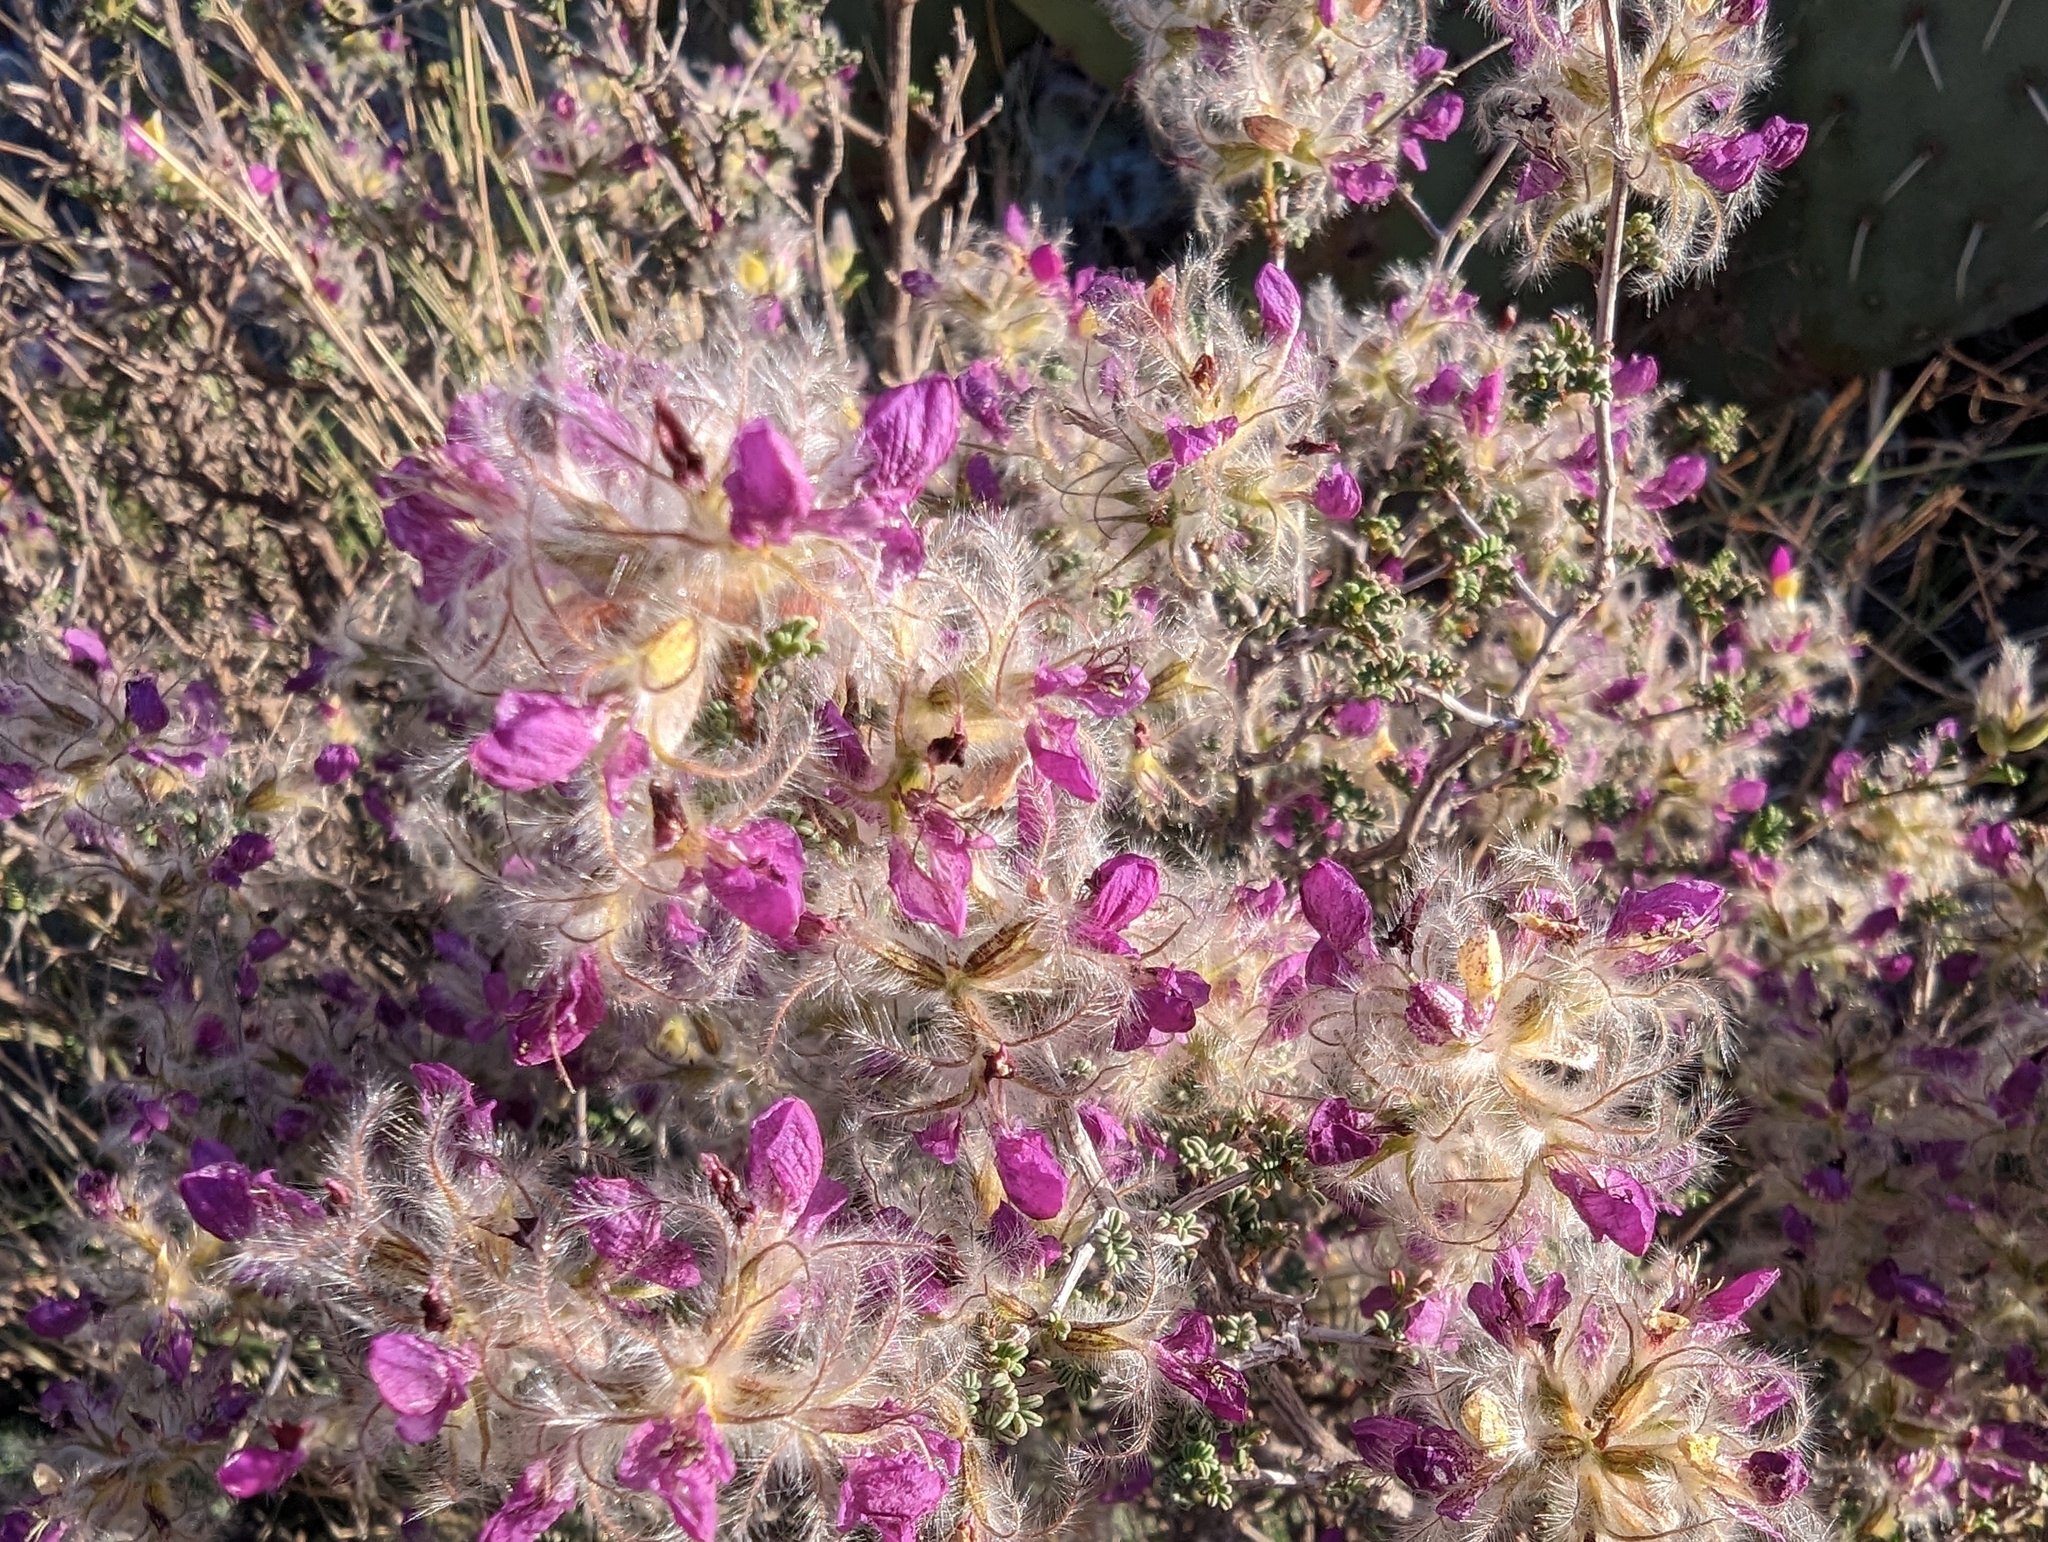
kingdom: Plantae
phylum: Tracheophyta
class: Magnoliopsida
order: Fabales
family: Fabaceae
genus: Dalea
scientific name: Dalea formosa
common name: Feather-plume dalea
